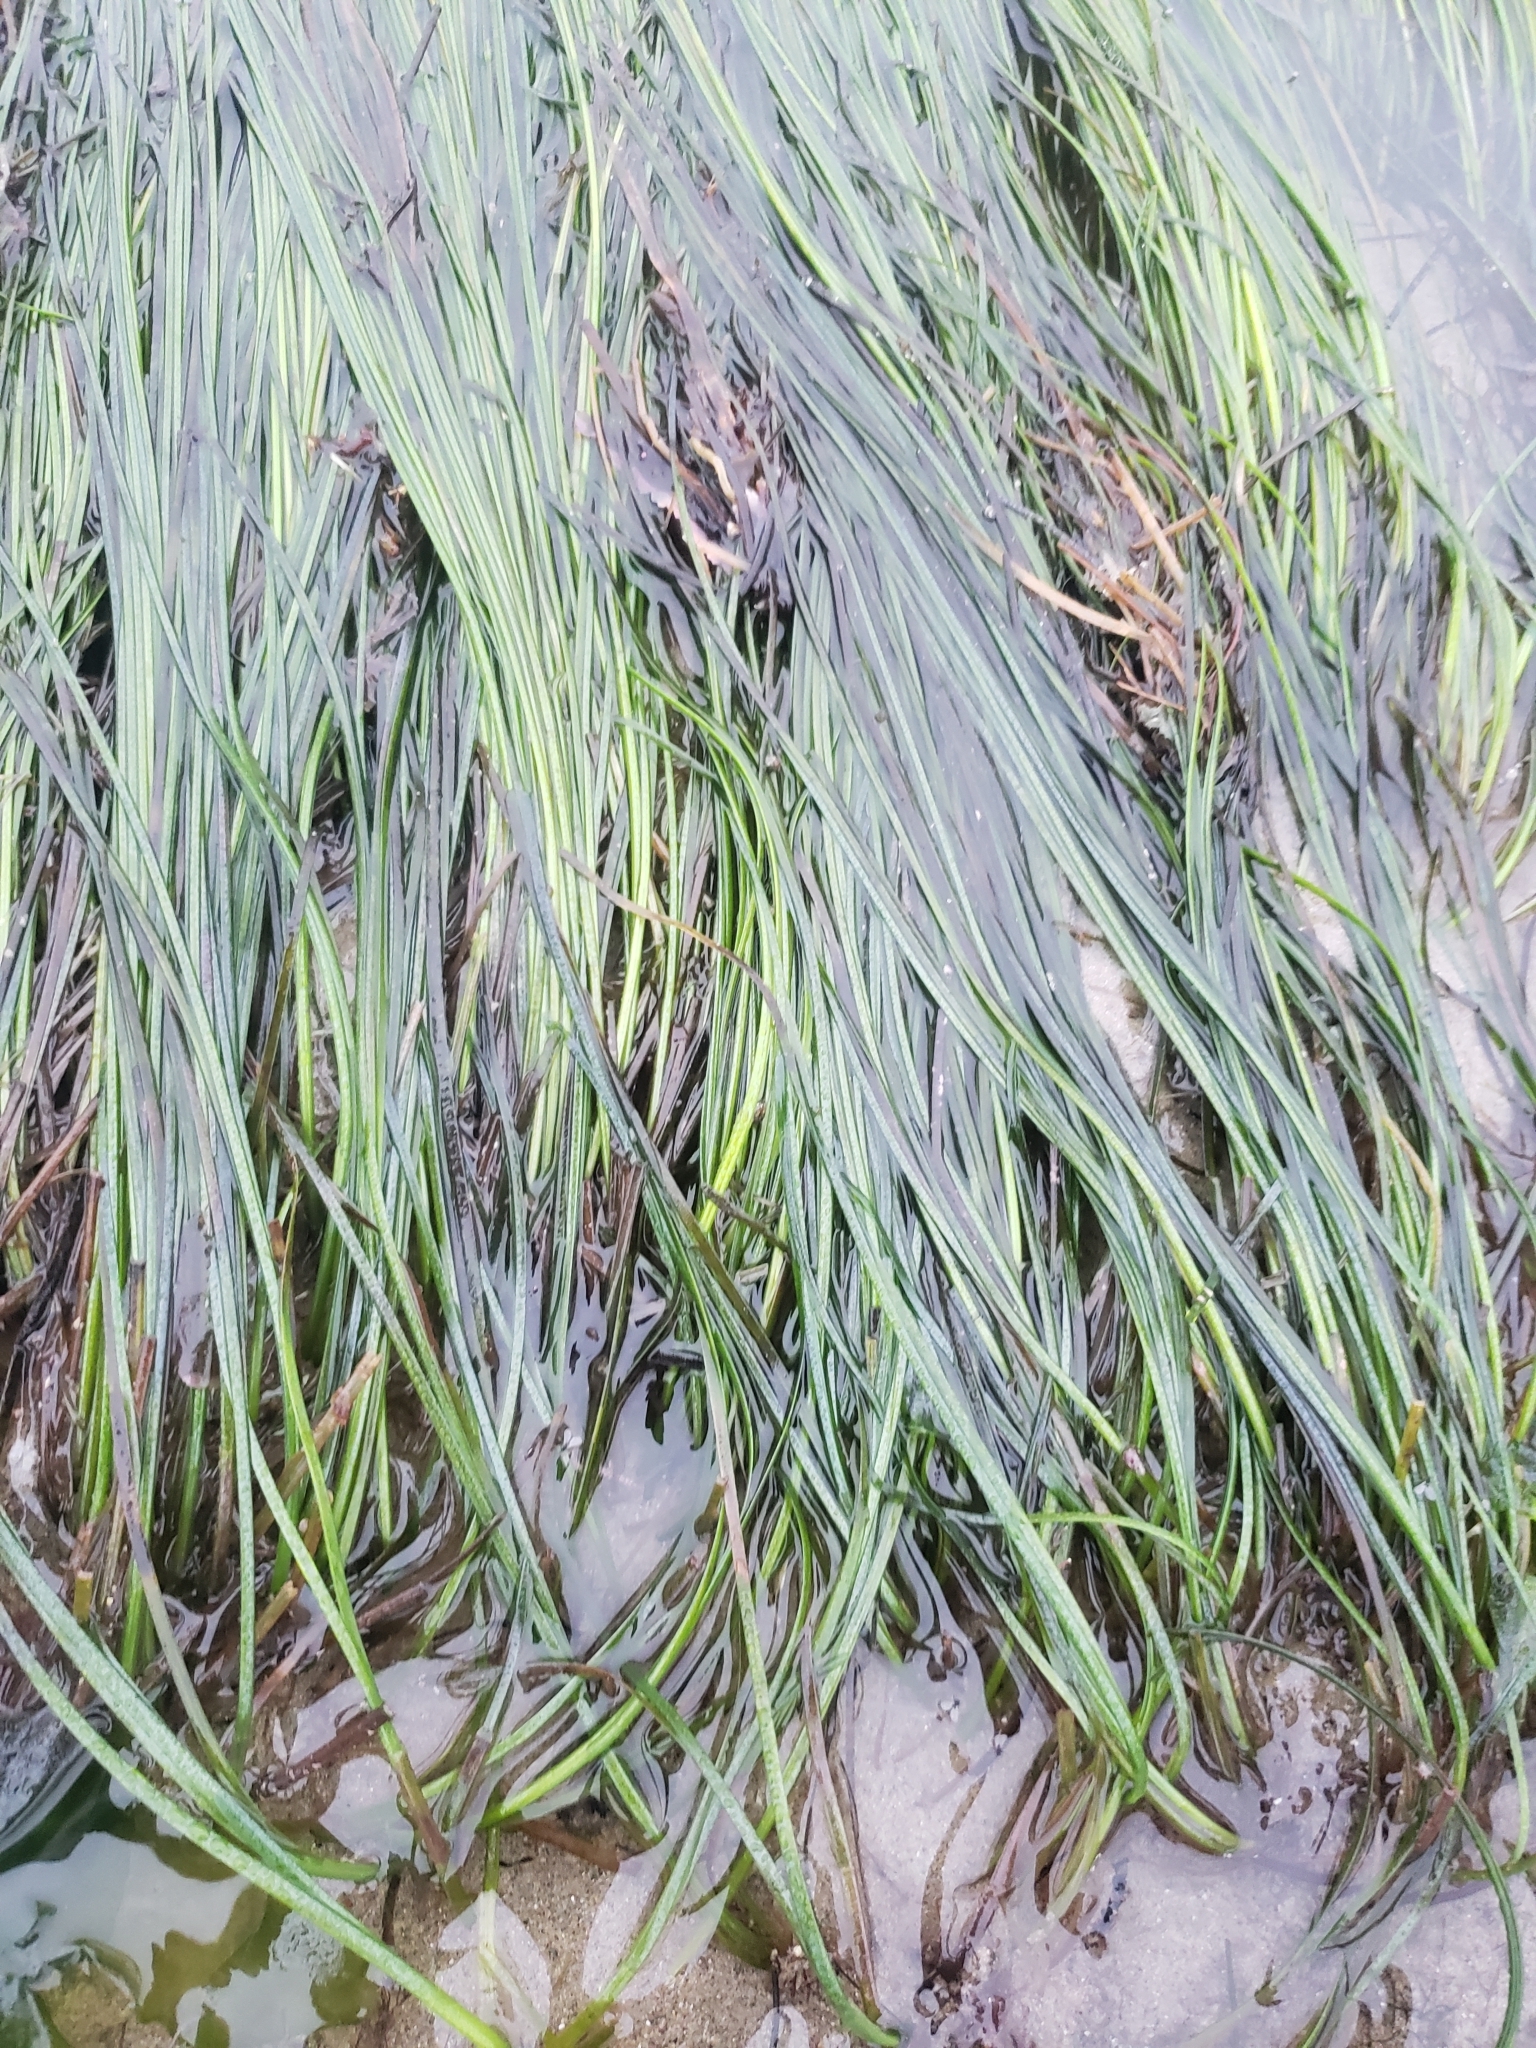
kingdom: Plantae
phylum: Tracheophyta
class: Liliopsida
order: Alismatales
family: Zosteraceae
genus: Phyllospadix
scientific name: Phyllospadix torreyi
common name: Surfgrass
